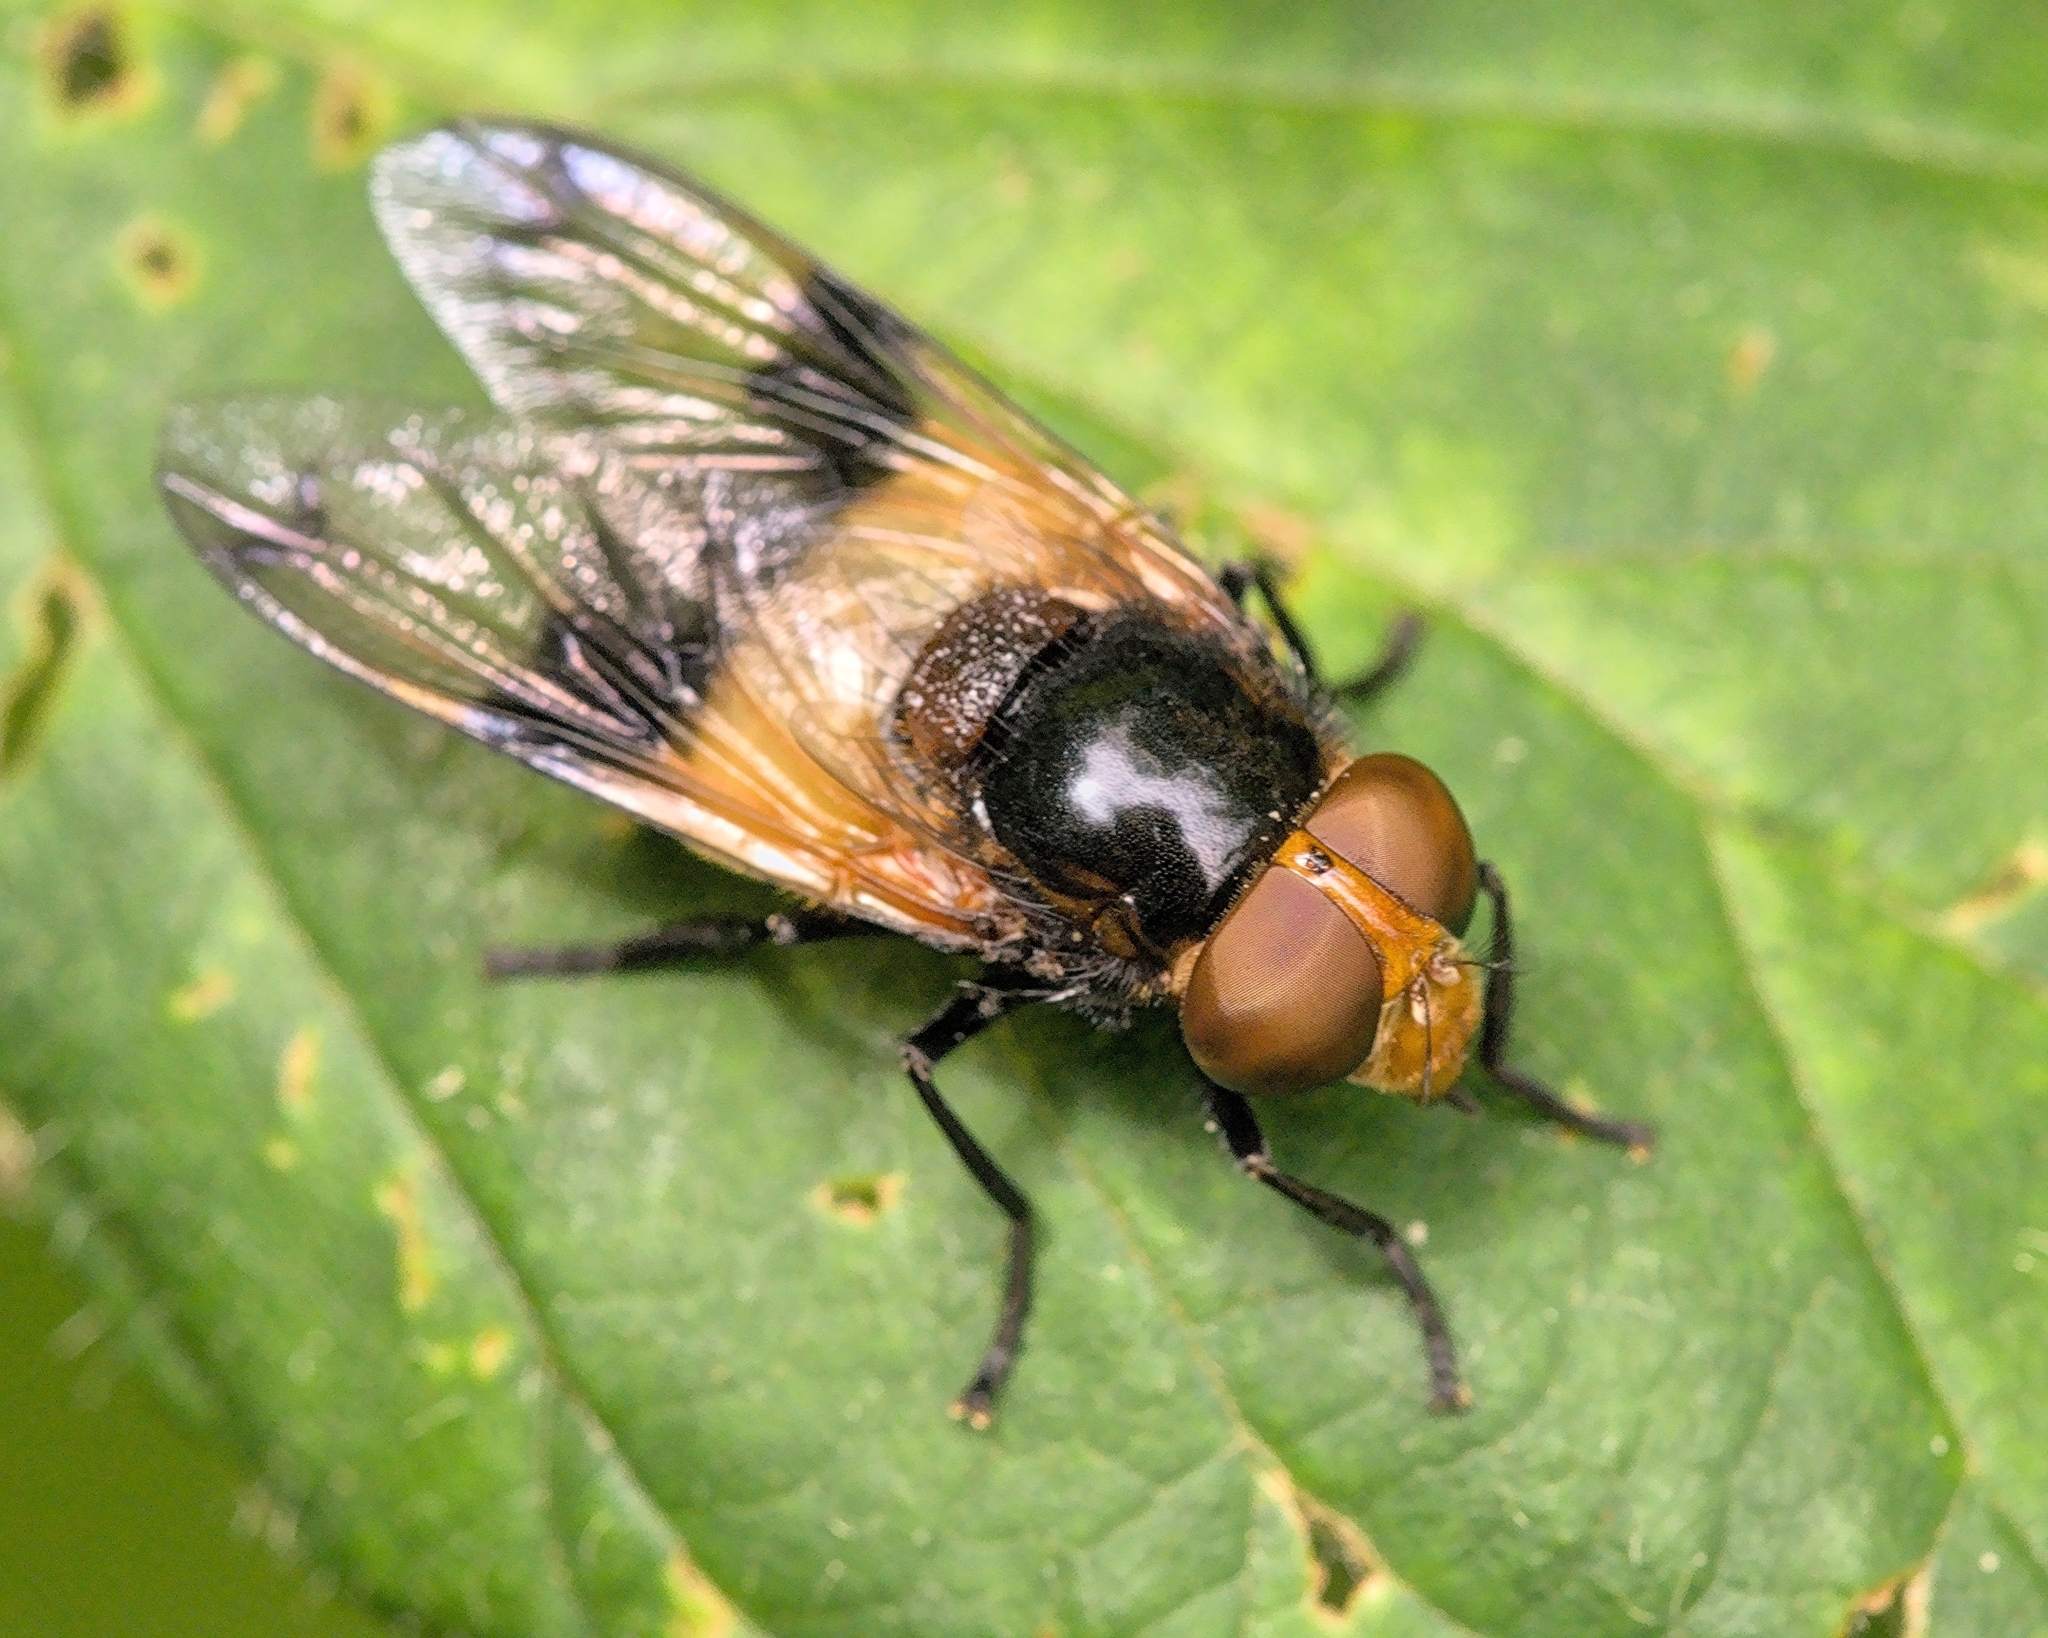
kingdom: Animalia
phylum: Arthropoda
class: Insecta
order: Diptera
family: Syrphidae
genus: Volucella
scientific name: Volucella pellucens
